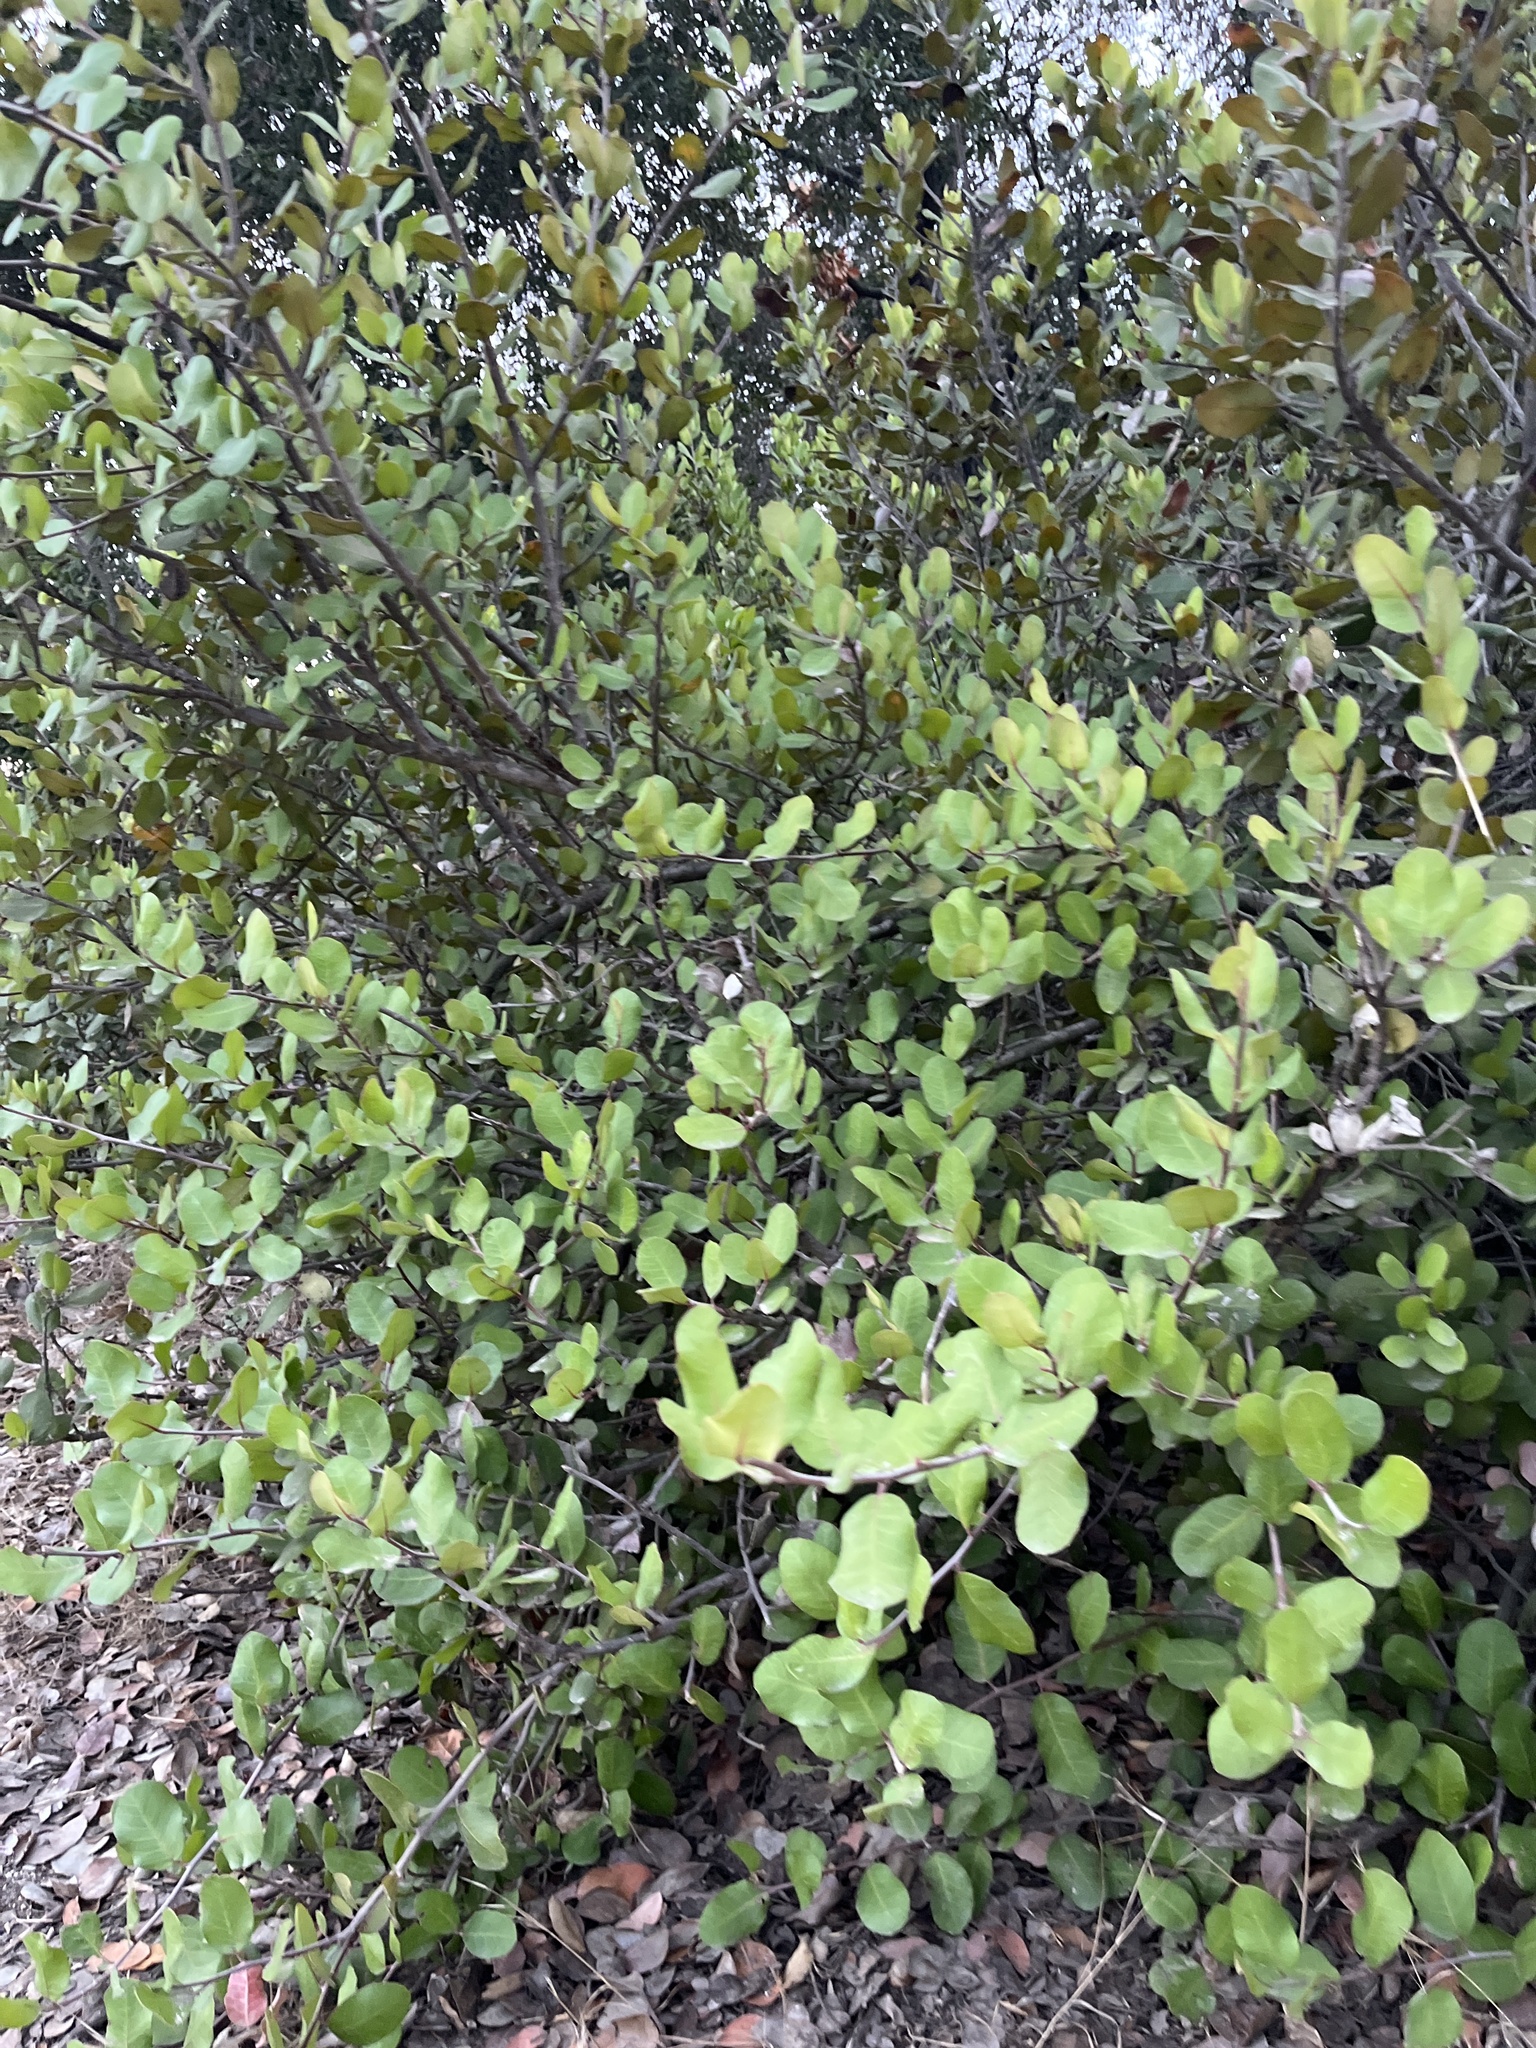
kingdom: Plantae
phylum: Tracheophyta
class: Magnoliopsida
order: Sapindales
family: Anacardiaceae
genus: Rhus
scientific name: Rhus integrifolia
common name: Lemonade sumac
